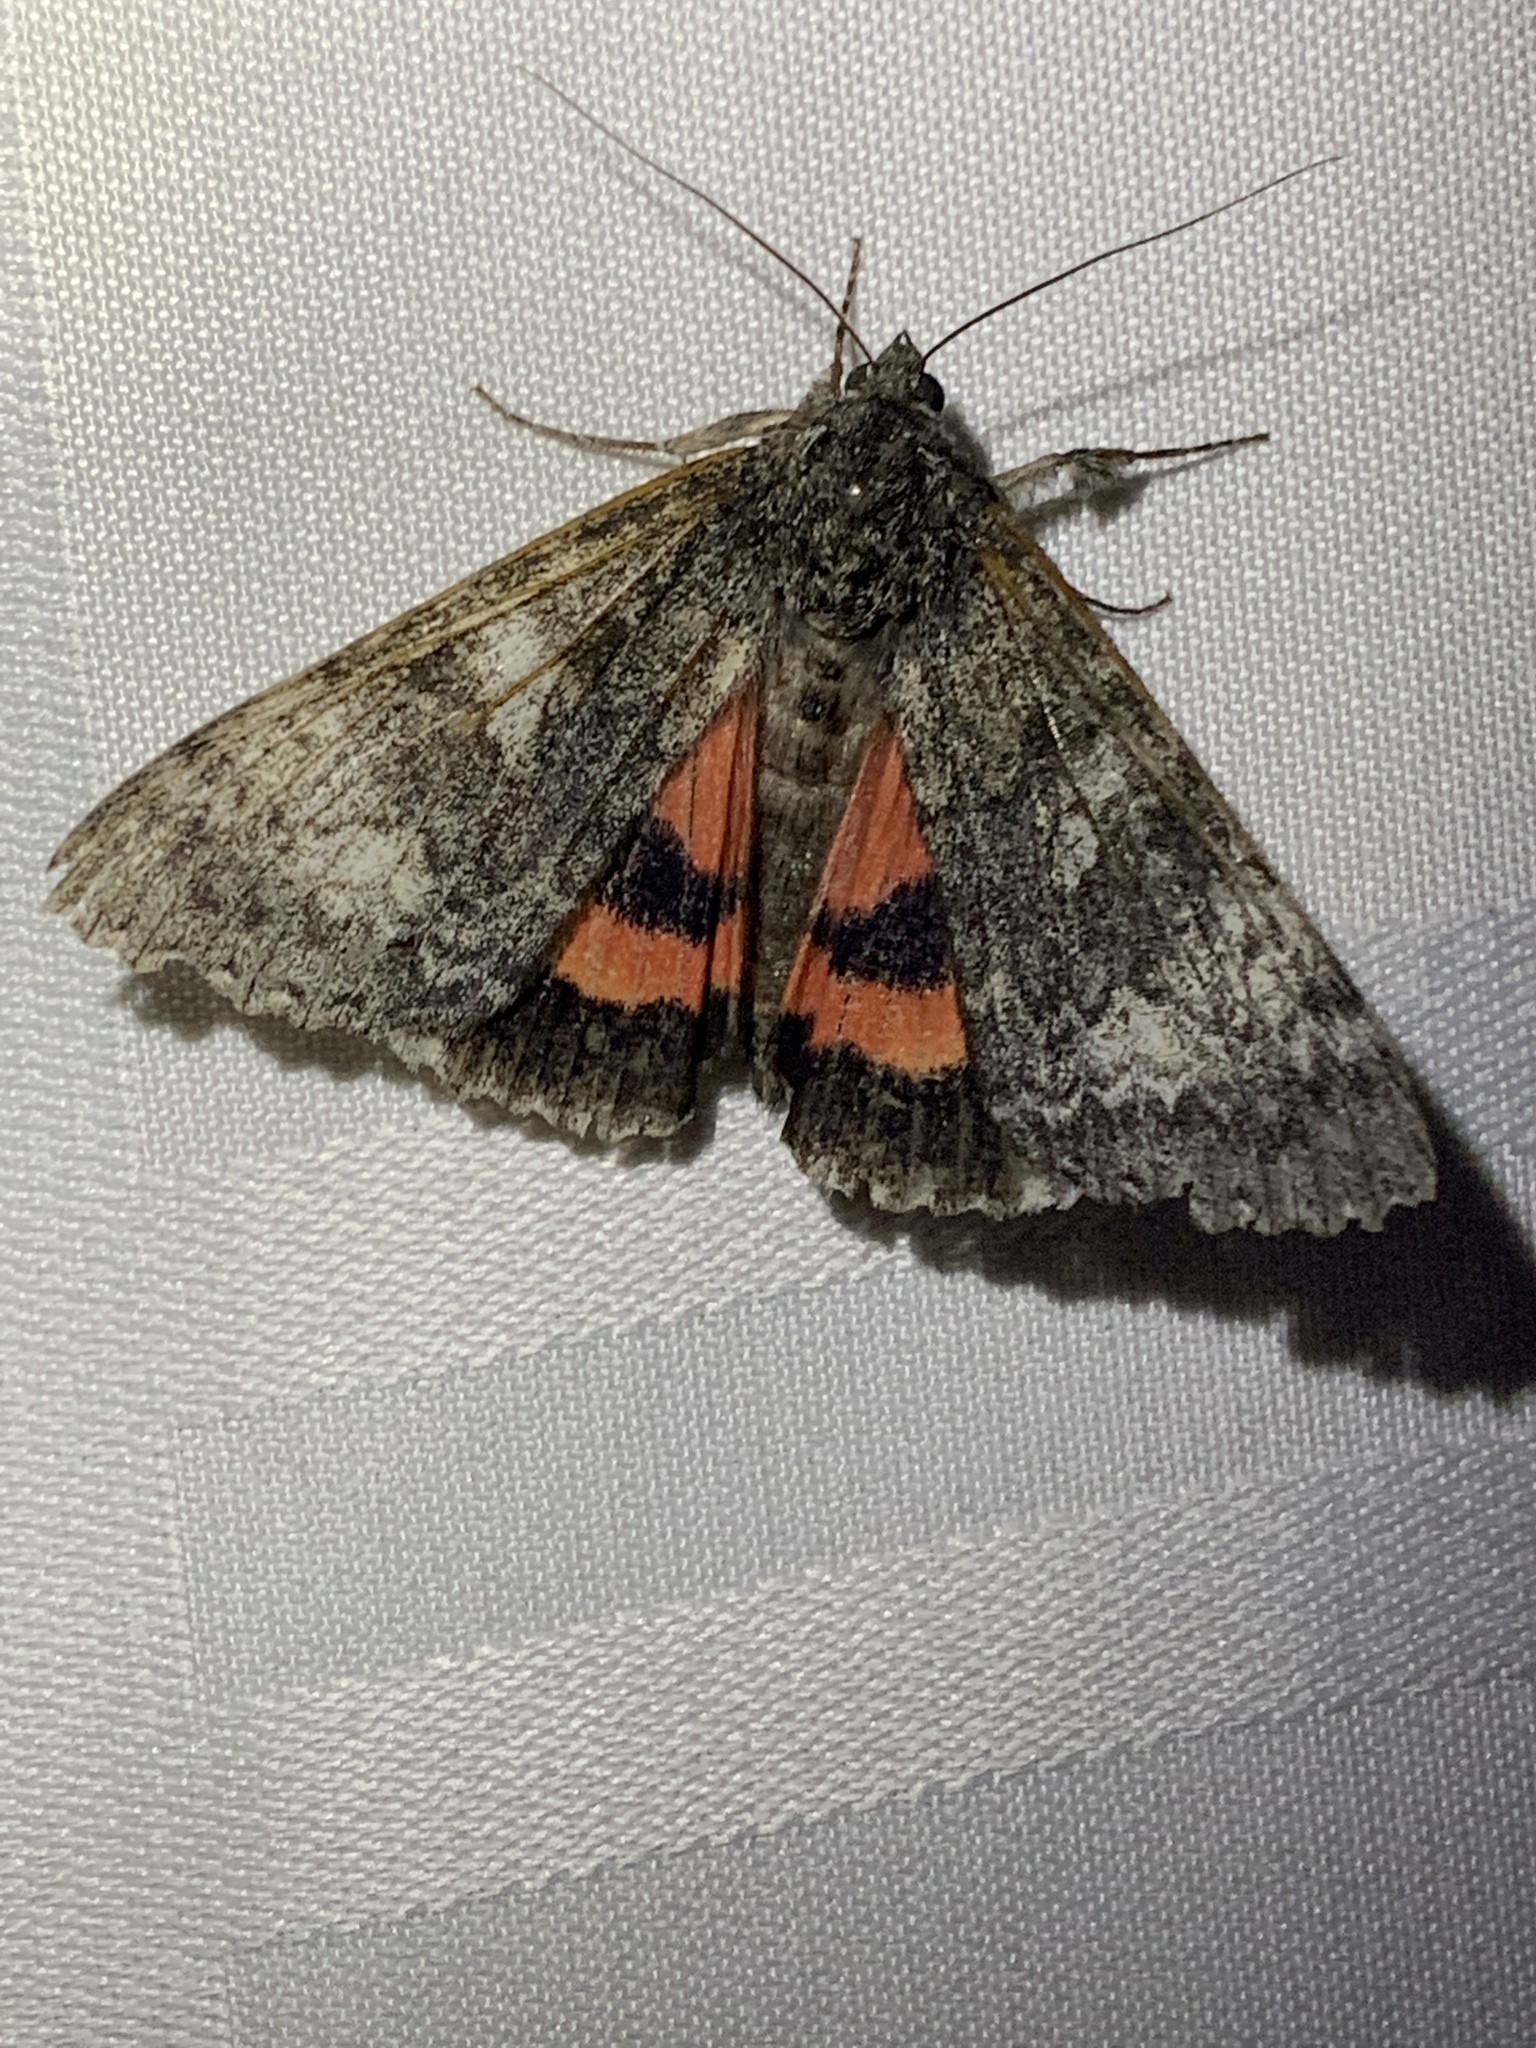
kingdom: Animalia
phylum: Arthropoda
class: Insecta
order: Lepidoptera
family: Erebidae
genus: Catocala
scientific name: Catocala briseis
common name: Briseis underwing
